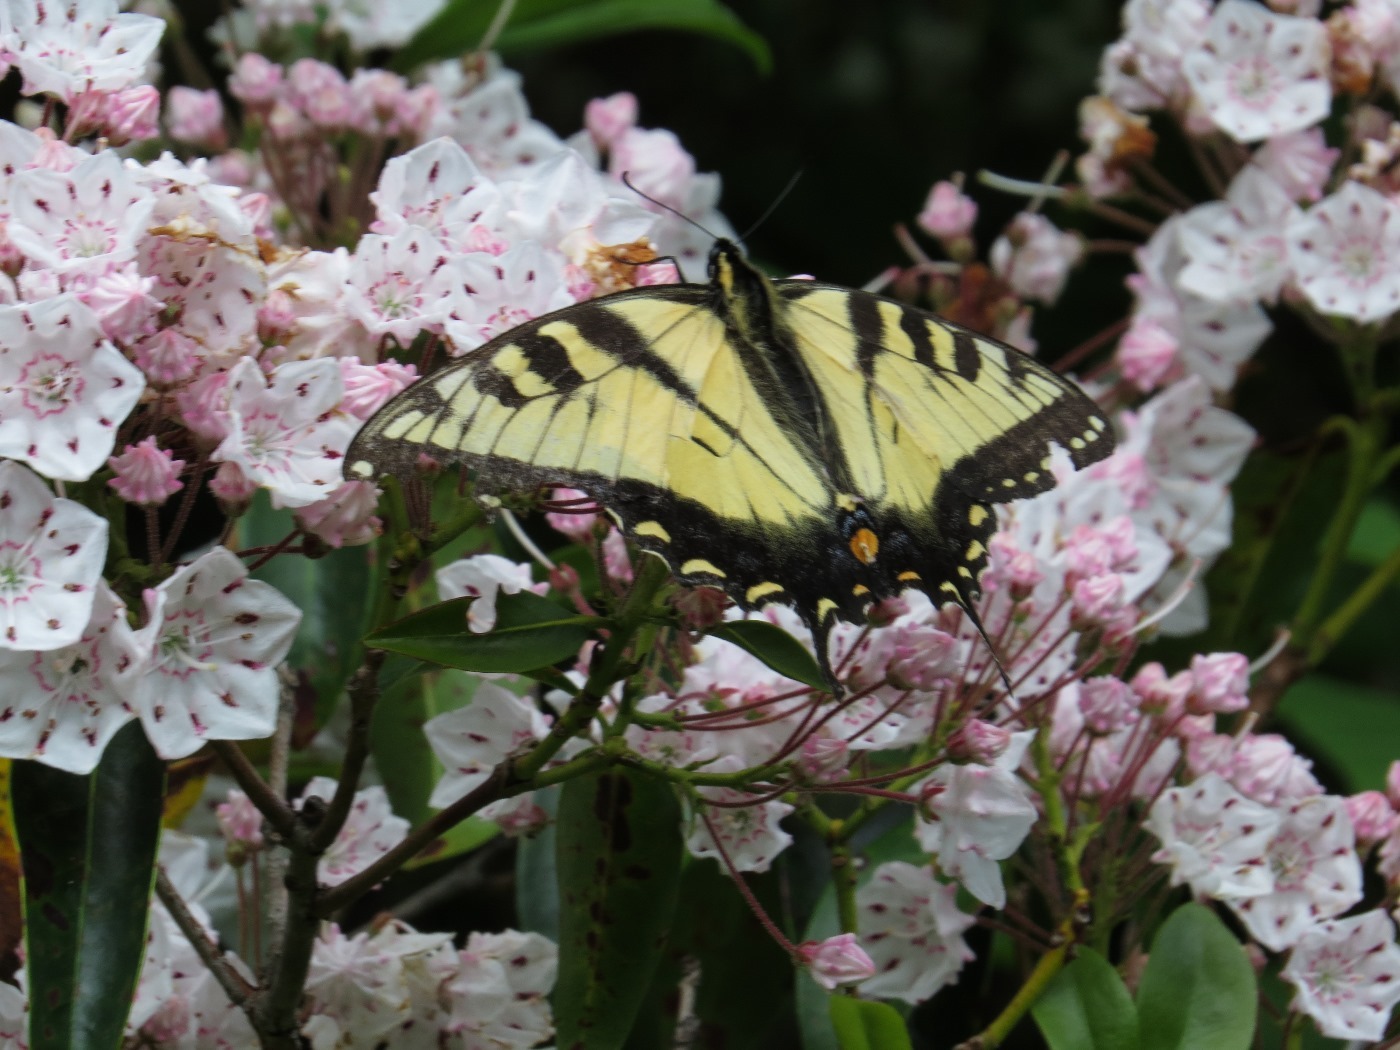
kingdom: Animalia
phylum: Arthropoda
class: Insecta
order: Lepidoptera
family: Papilionidae
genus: Papilio
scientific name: Papilio glaucus
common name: Tiger swallowtail
